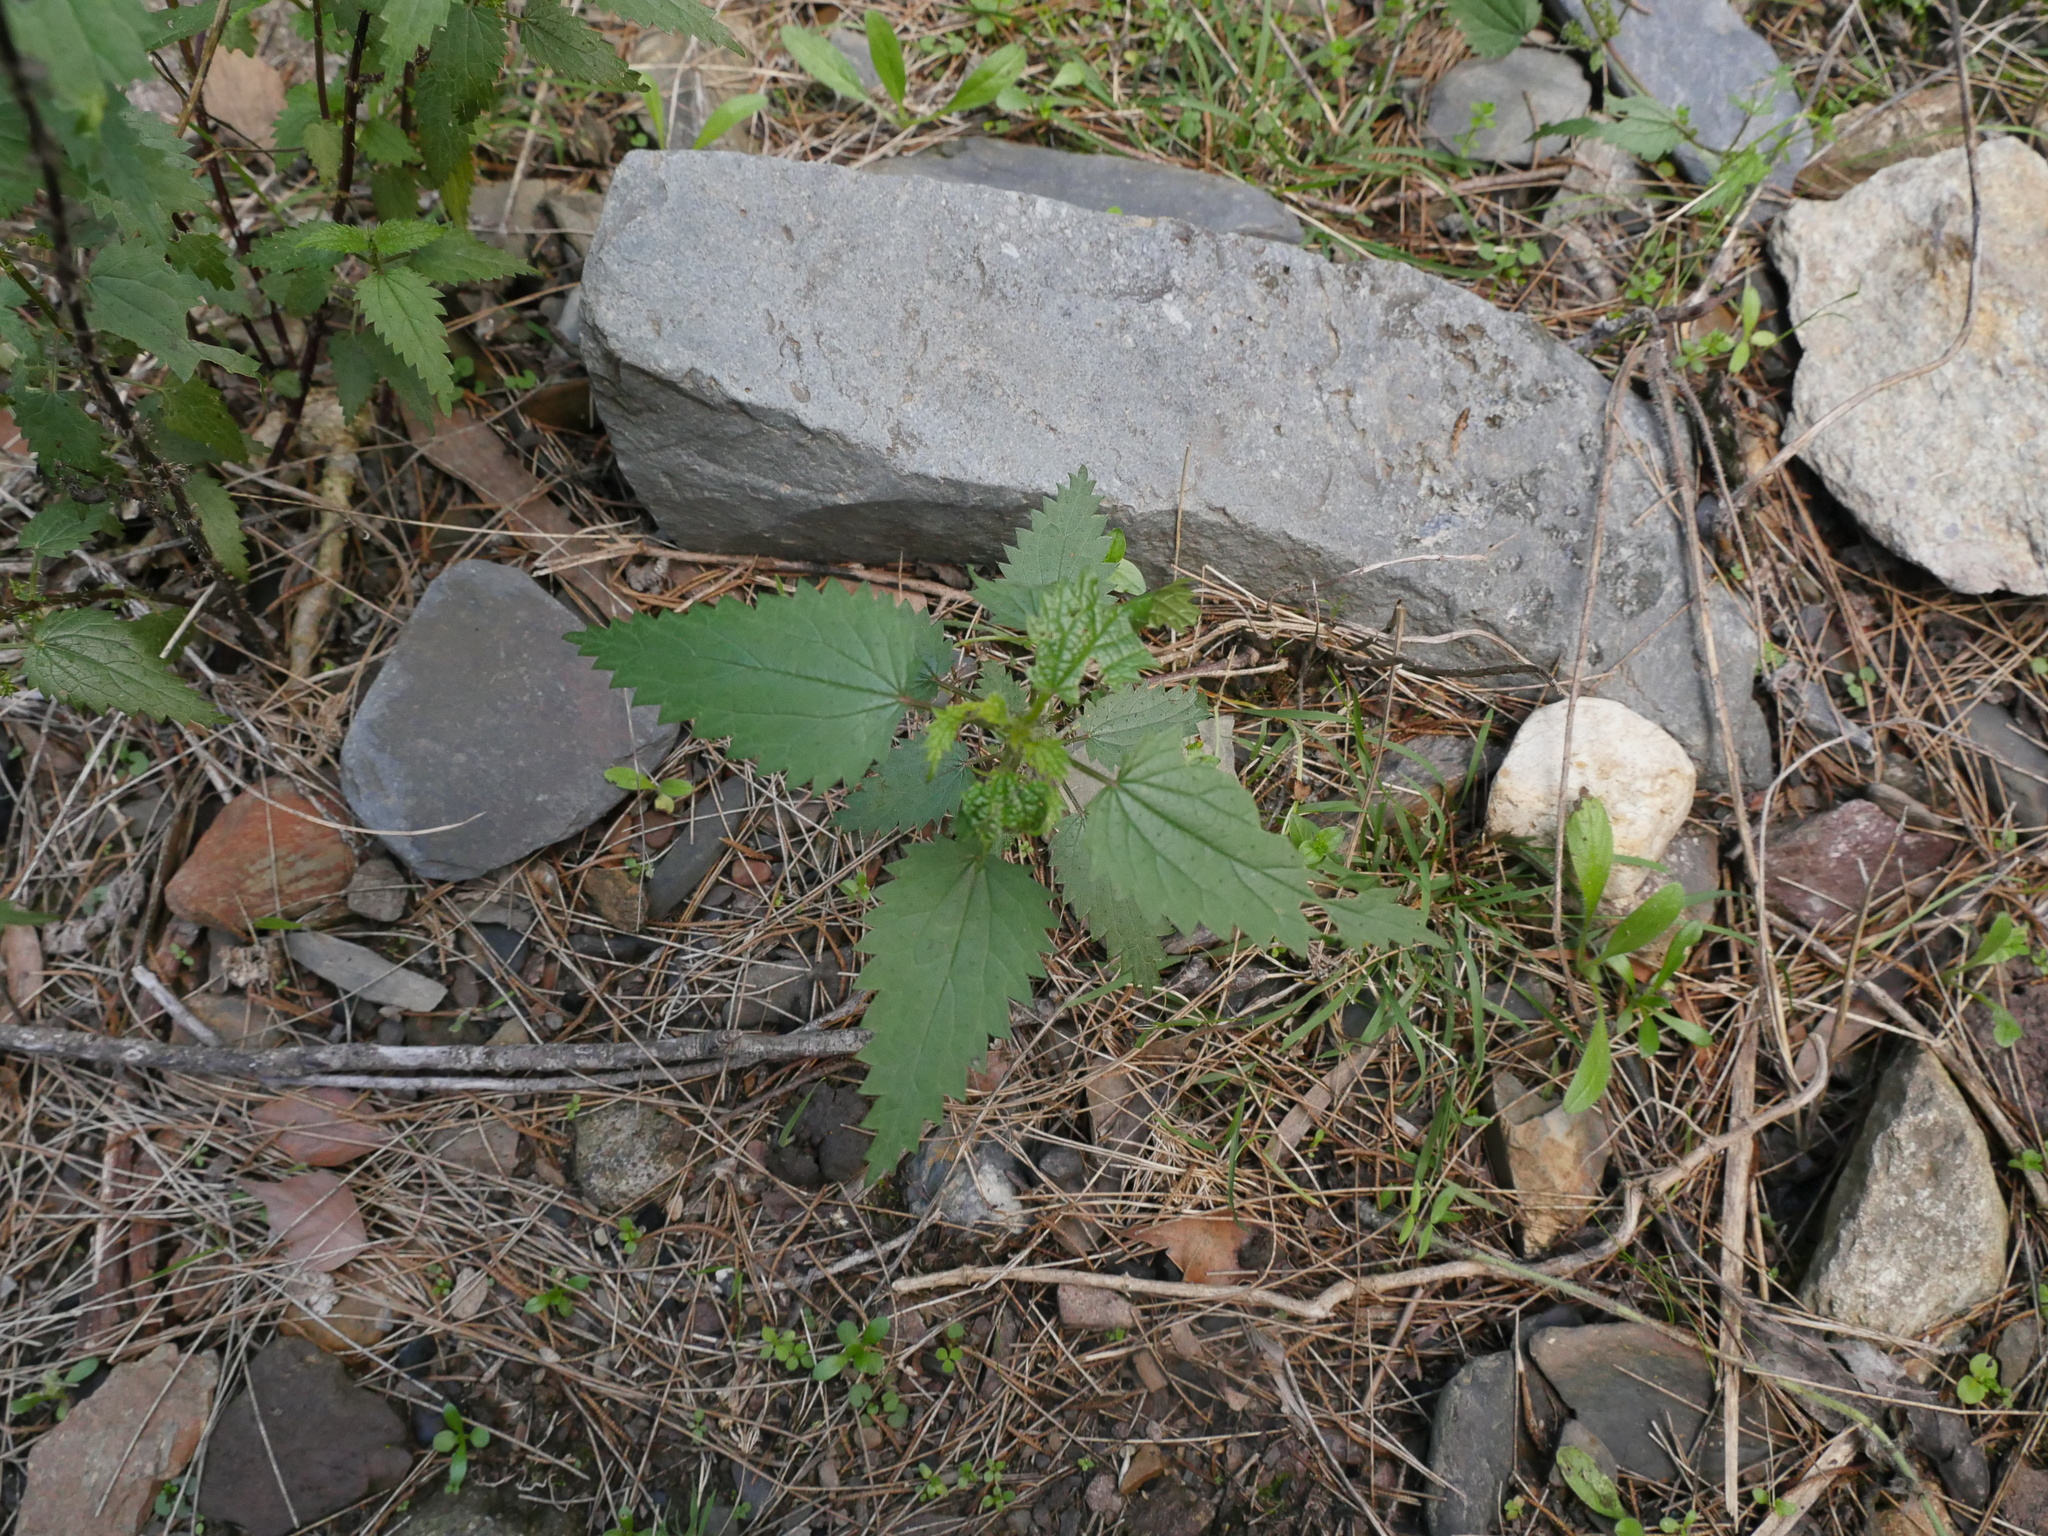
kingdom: Plantae
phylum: Tracheophyta
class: Magnoliopsida
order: Rosales
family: Urticaceae
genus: Urtica
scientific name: Urtica dioica
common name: Common nettle
